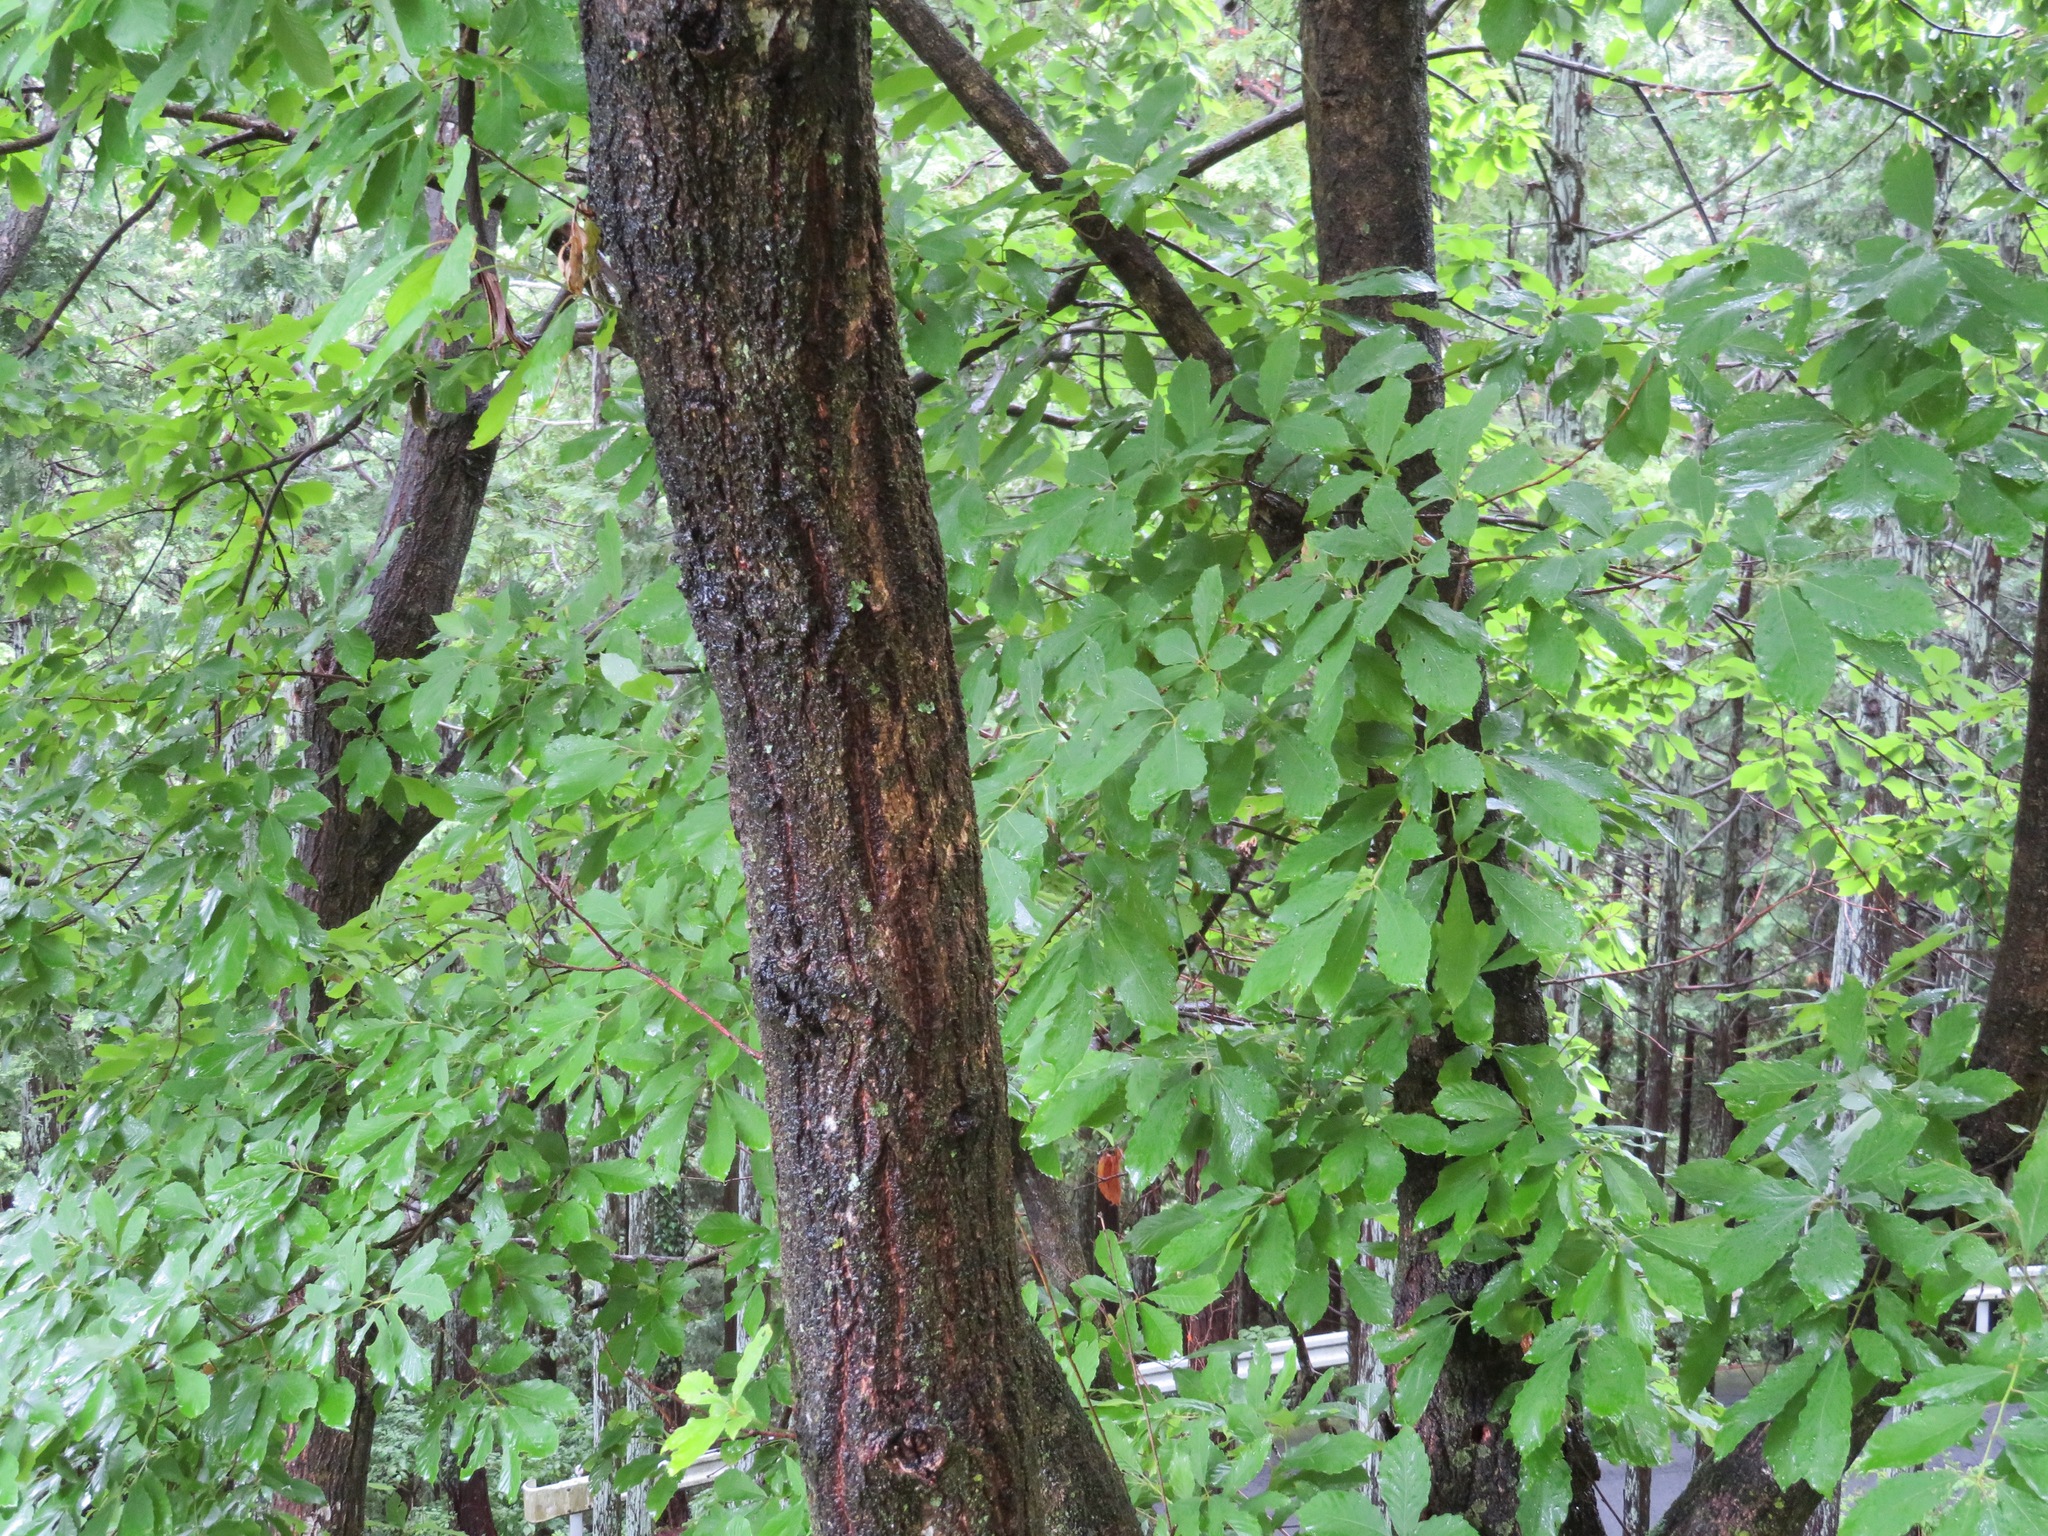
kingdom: Plantae
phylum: Tracheophyta
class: Magnoliopsida
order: Fagales
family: Fagaceae
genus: Quercus
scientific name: Quercus serrata
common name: Bao li
